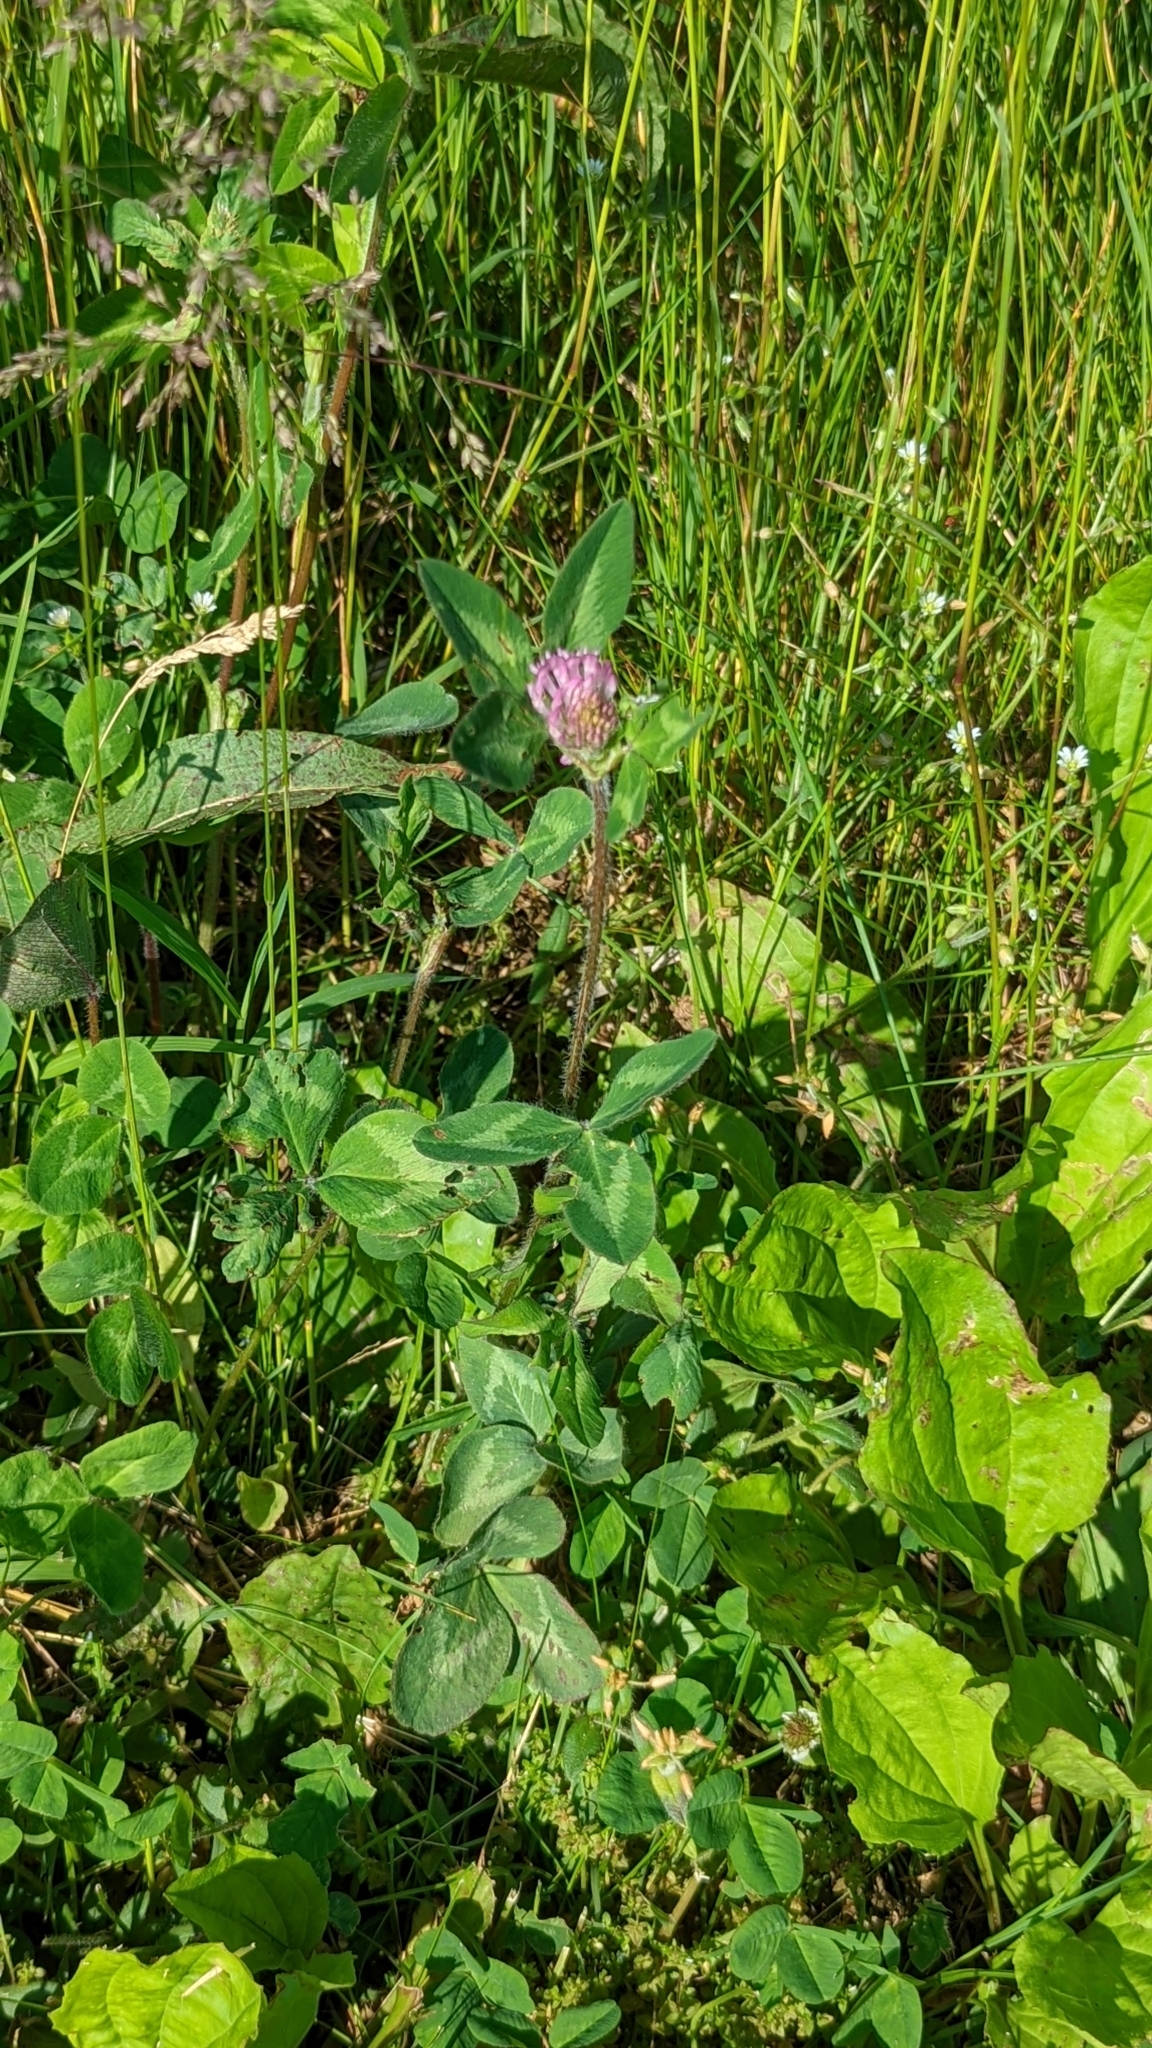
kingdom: Plantae
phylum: Tracheophyta
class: Magnoliopsida
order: Fabales
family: Fabaceae
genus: Trifolium
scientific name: Trifolium pratense
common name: Red clover
